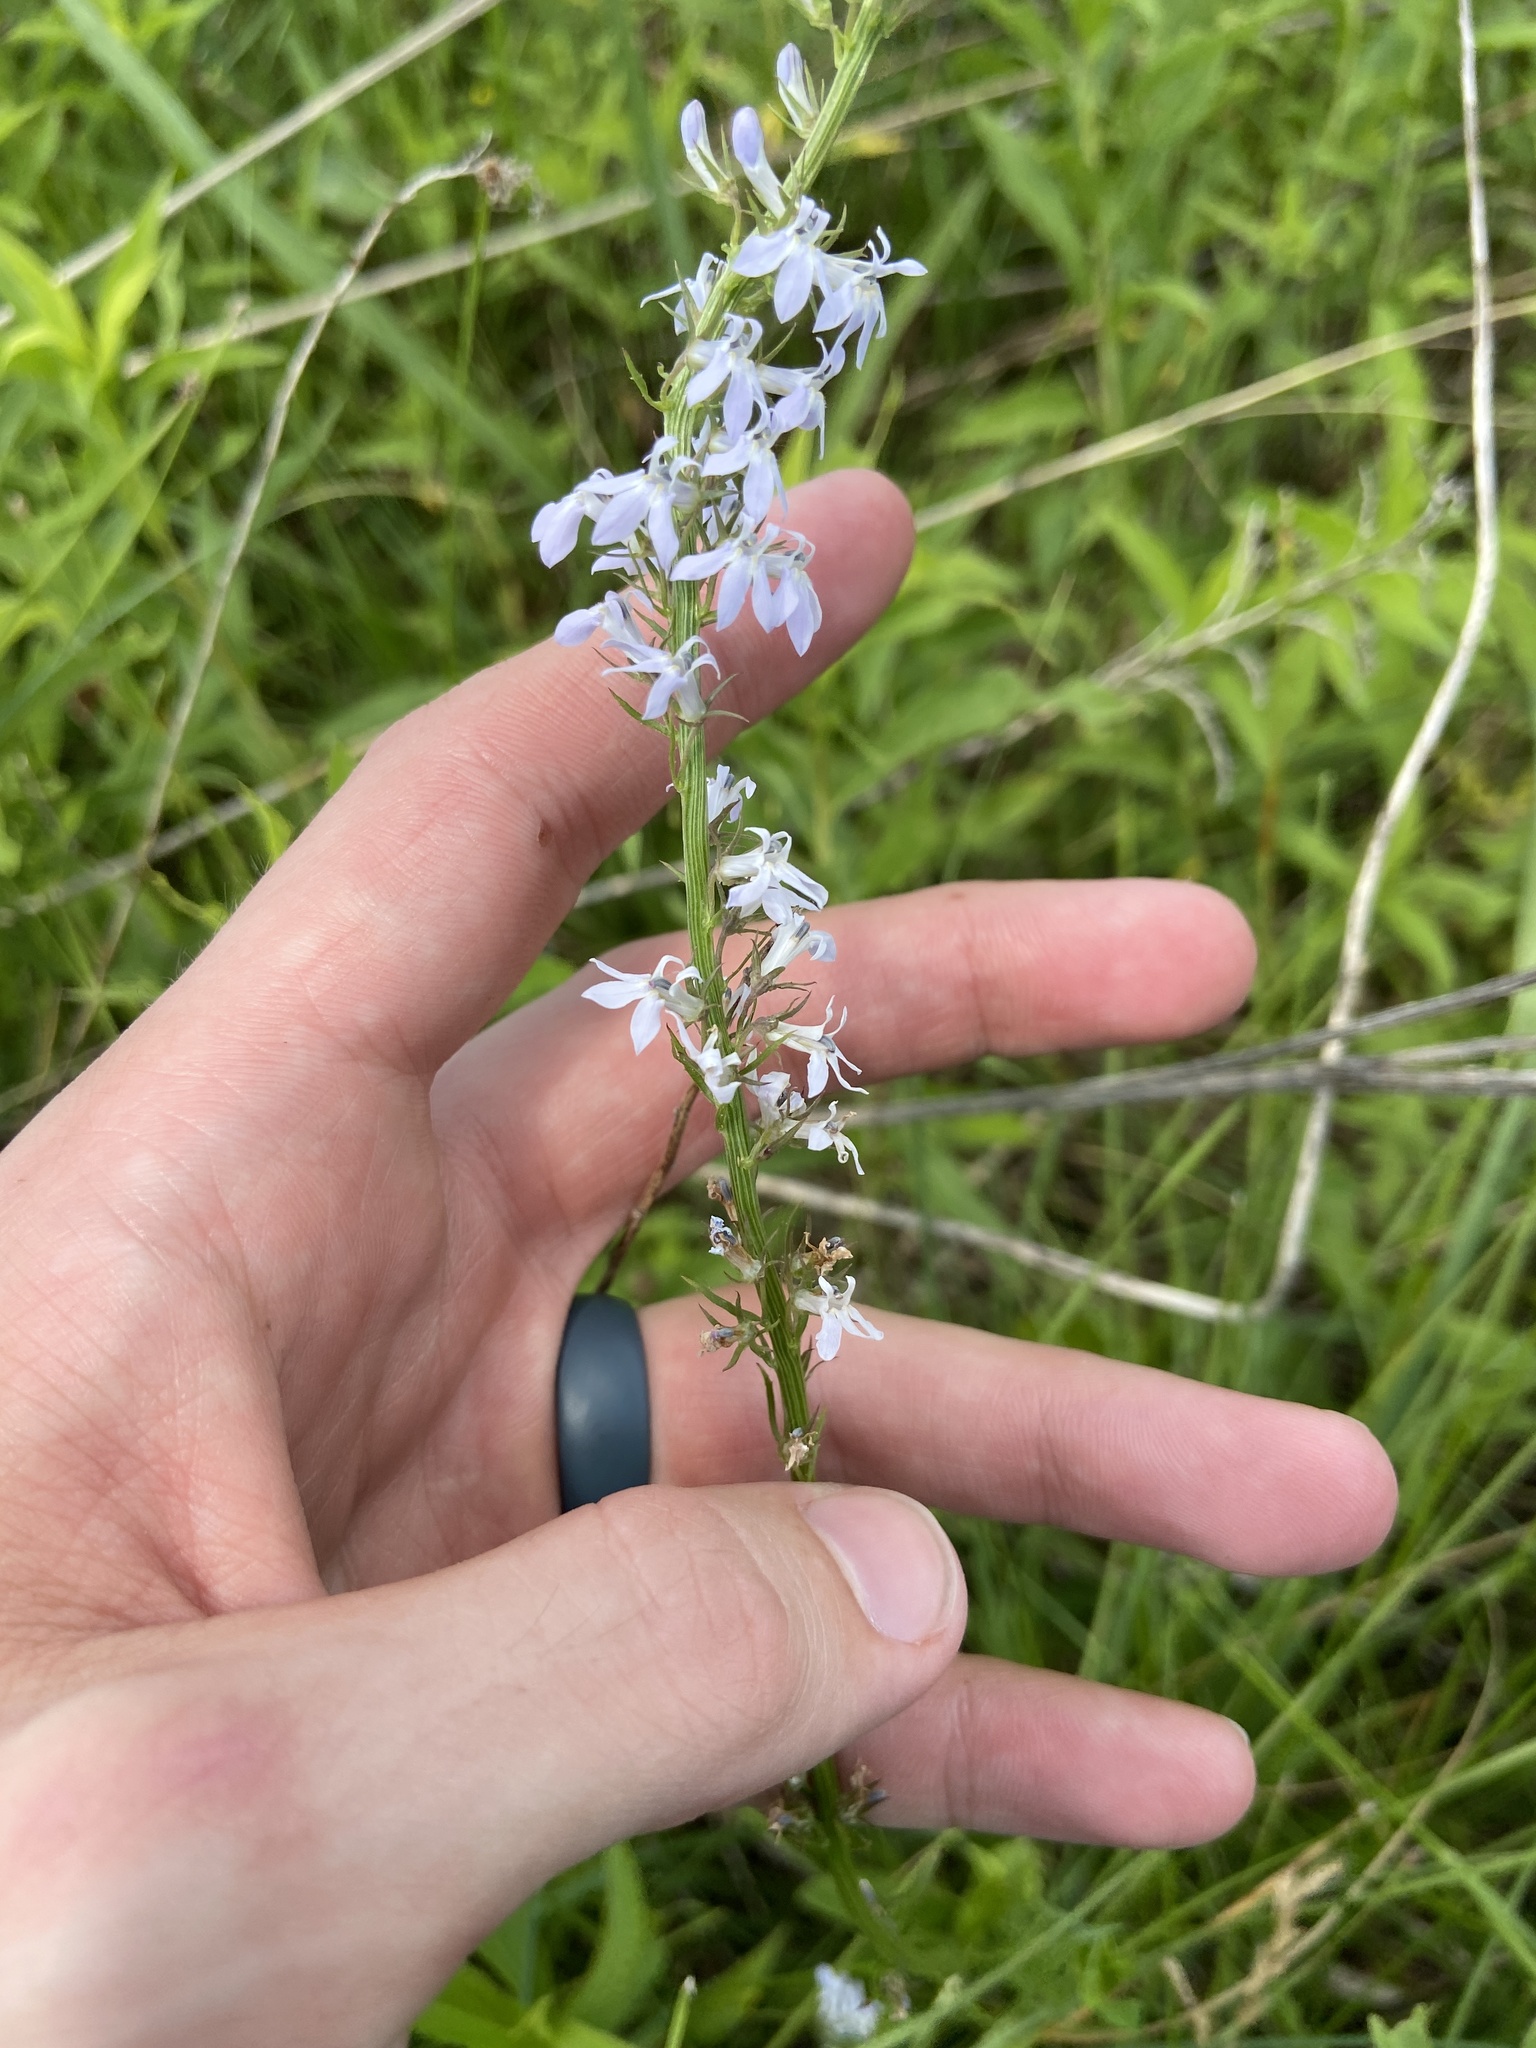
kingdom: Plantae
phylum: Tracheophyta
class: Magnoliopsida
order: Asterales
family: Campanulaceae
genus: Lobelia
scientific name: Lobelia spicata
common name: Pale-spike lobelia
